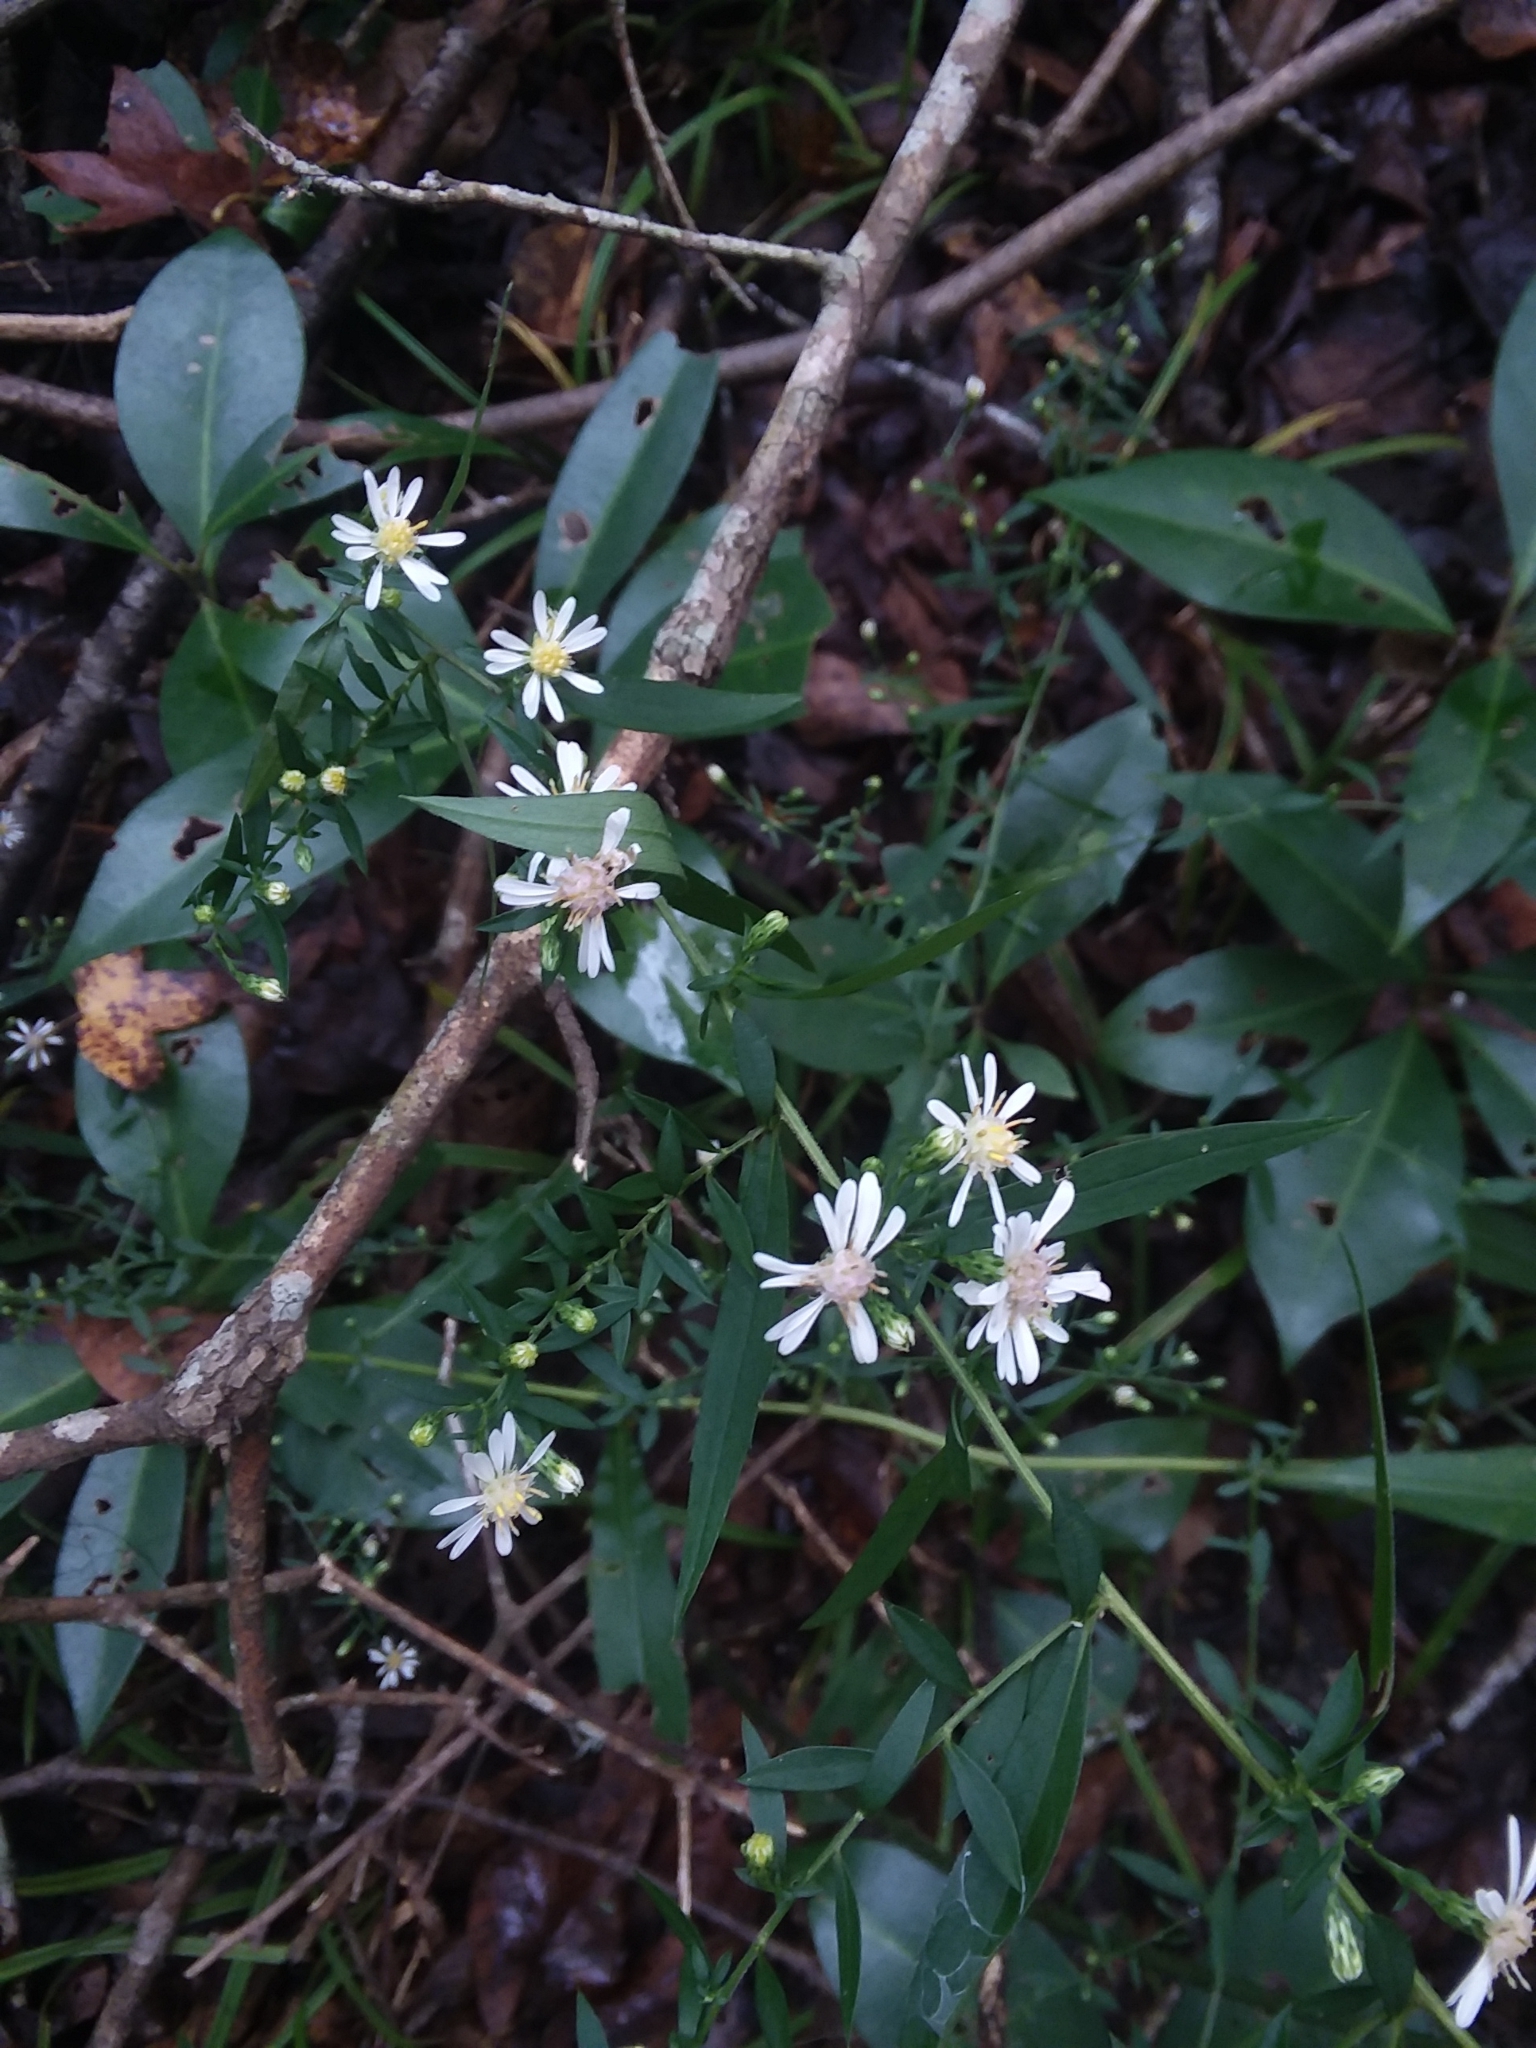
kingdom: Plantae
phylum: Tracheophyta
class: Magnoliopsida
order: Asterales
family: Asteraceae
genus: Symphyotrichum
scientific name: Symphyotrichum lateriflorum
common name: Calico aster
